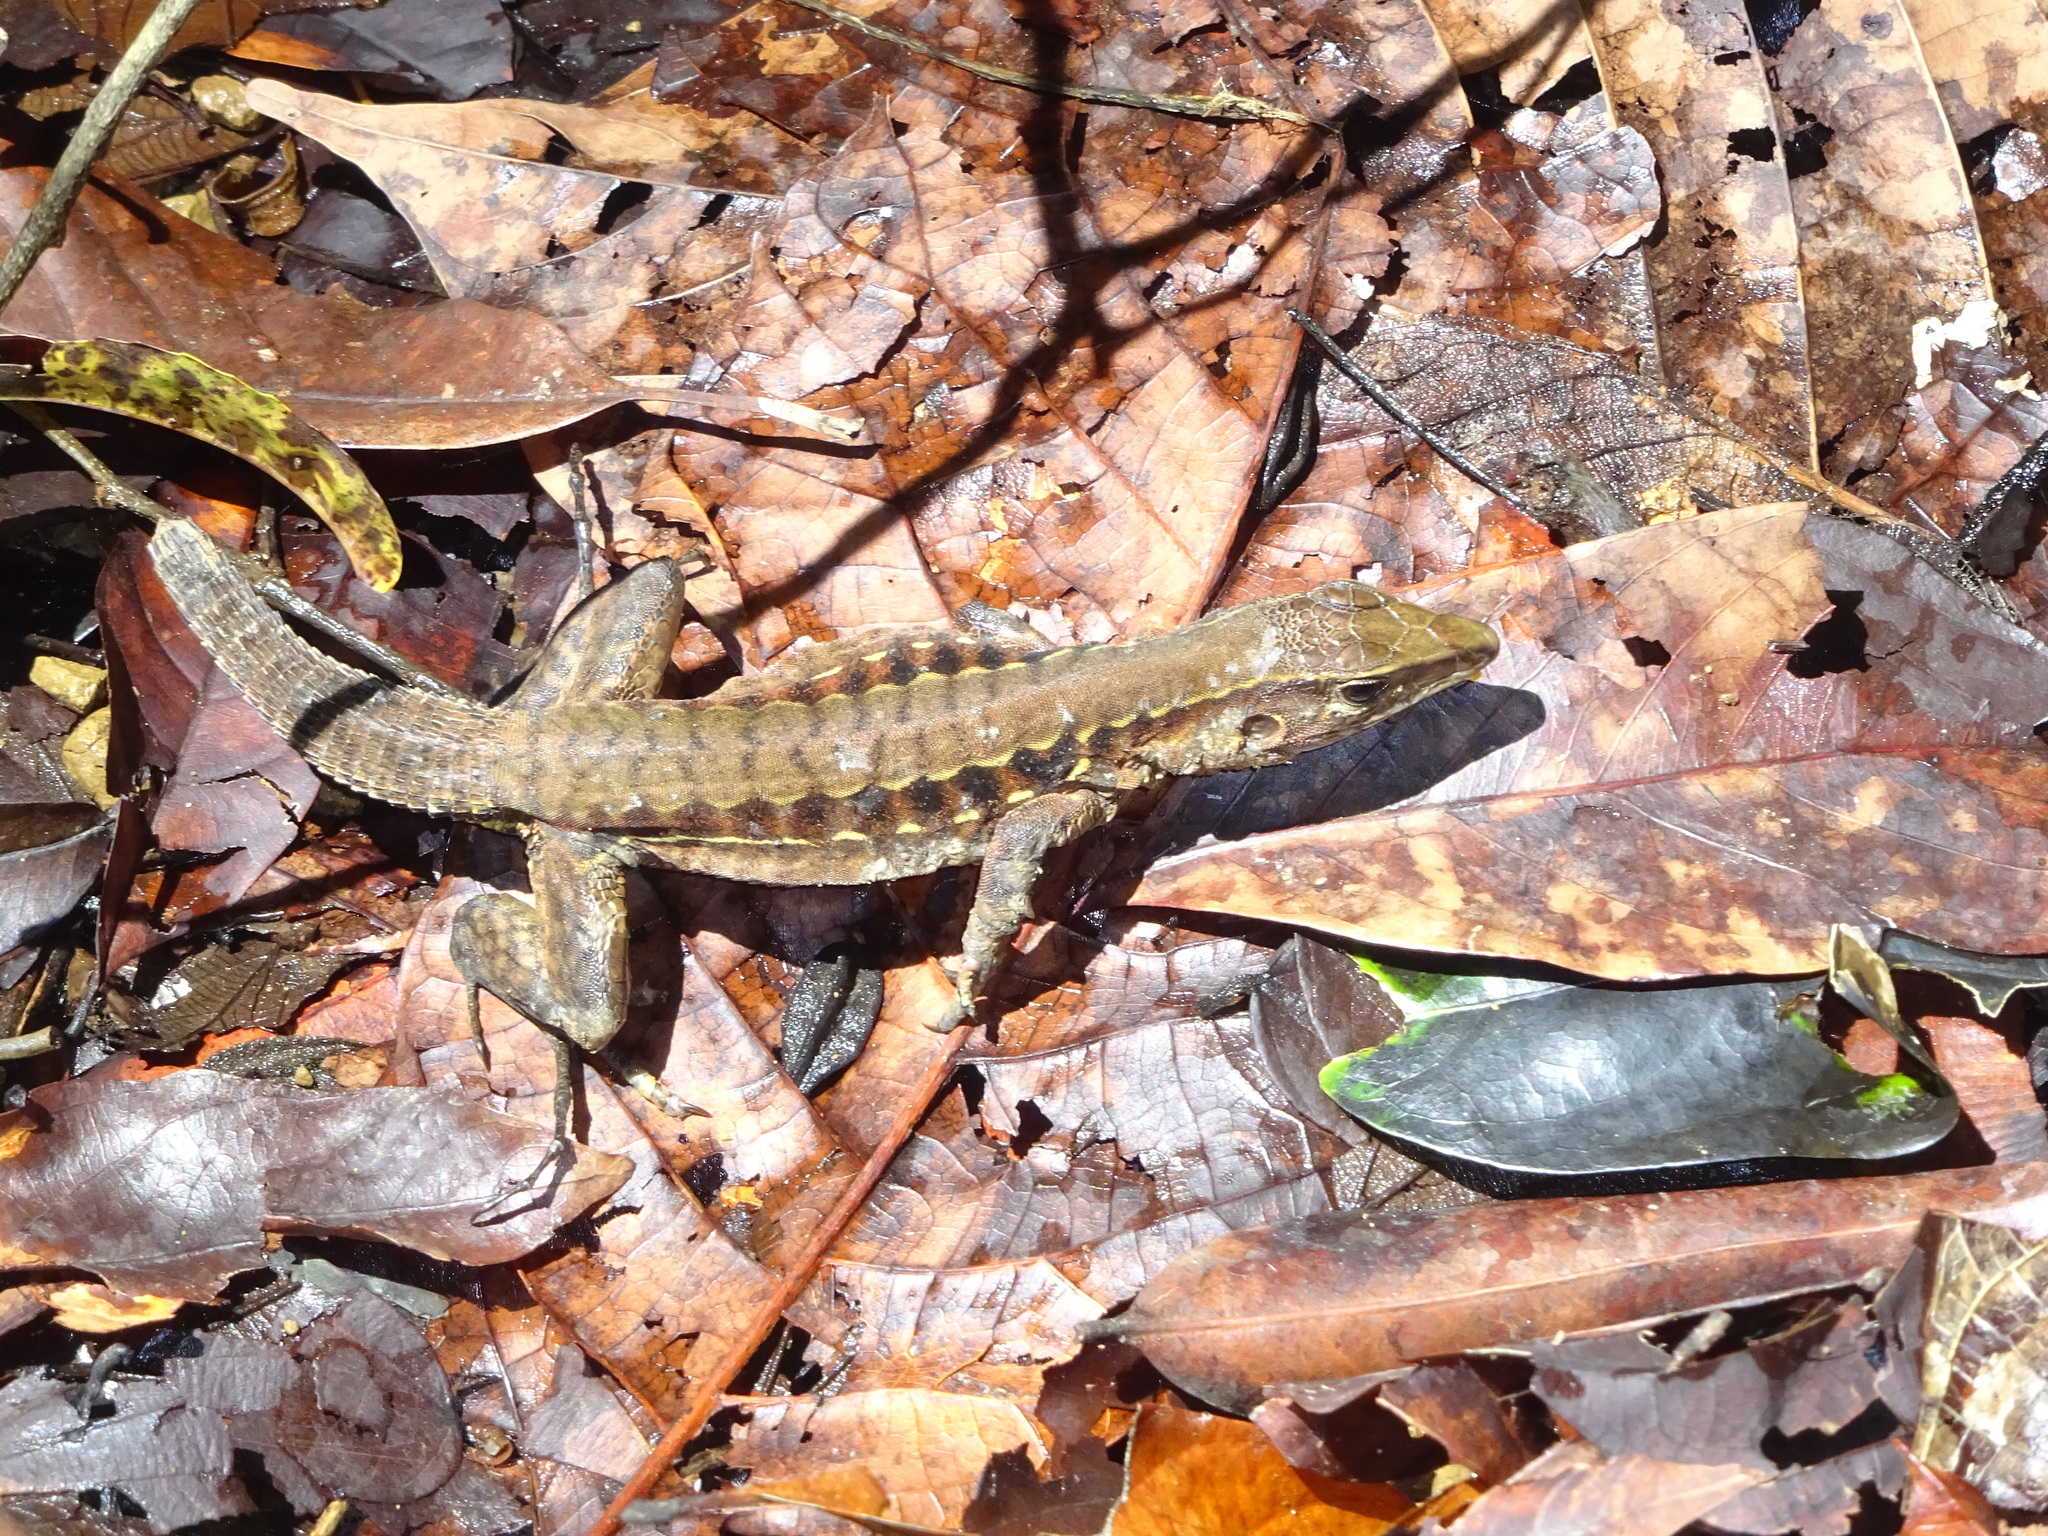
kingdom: Animalia
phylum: Chordata
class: Squamata
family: Teiidae
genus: Holcosus
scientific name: Holcosus leptophrys
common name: Delicate ameiva
